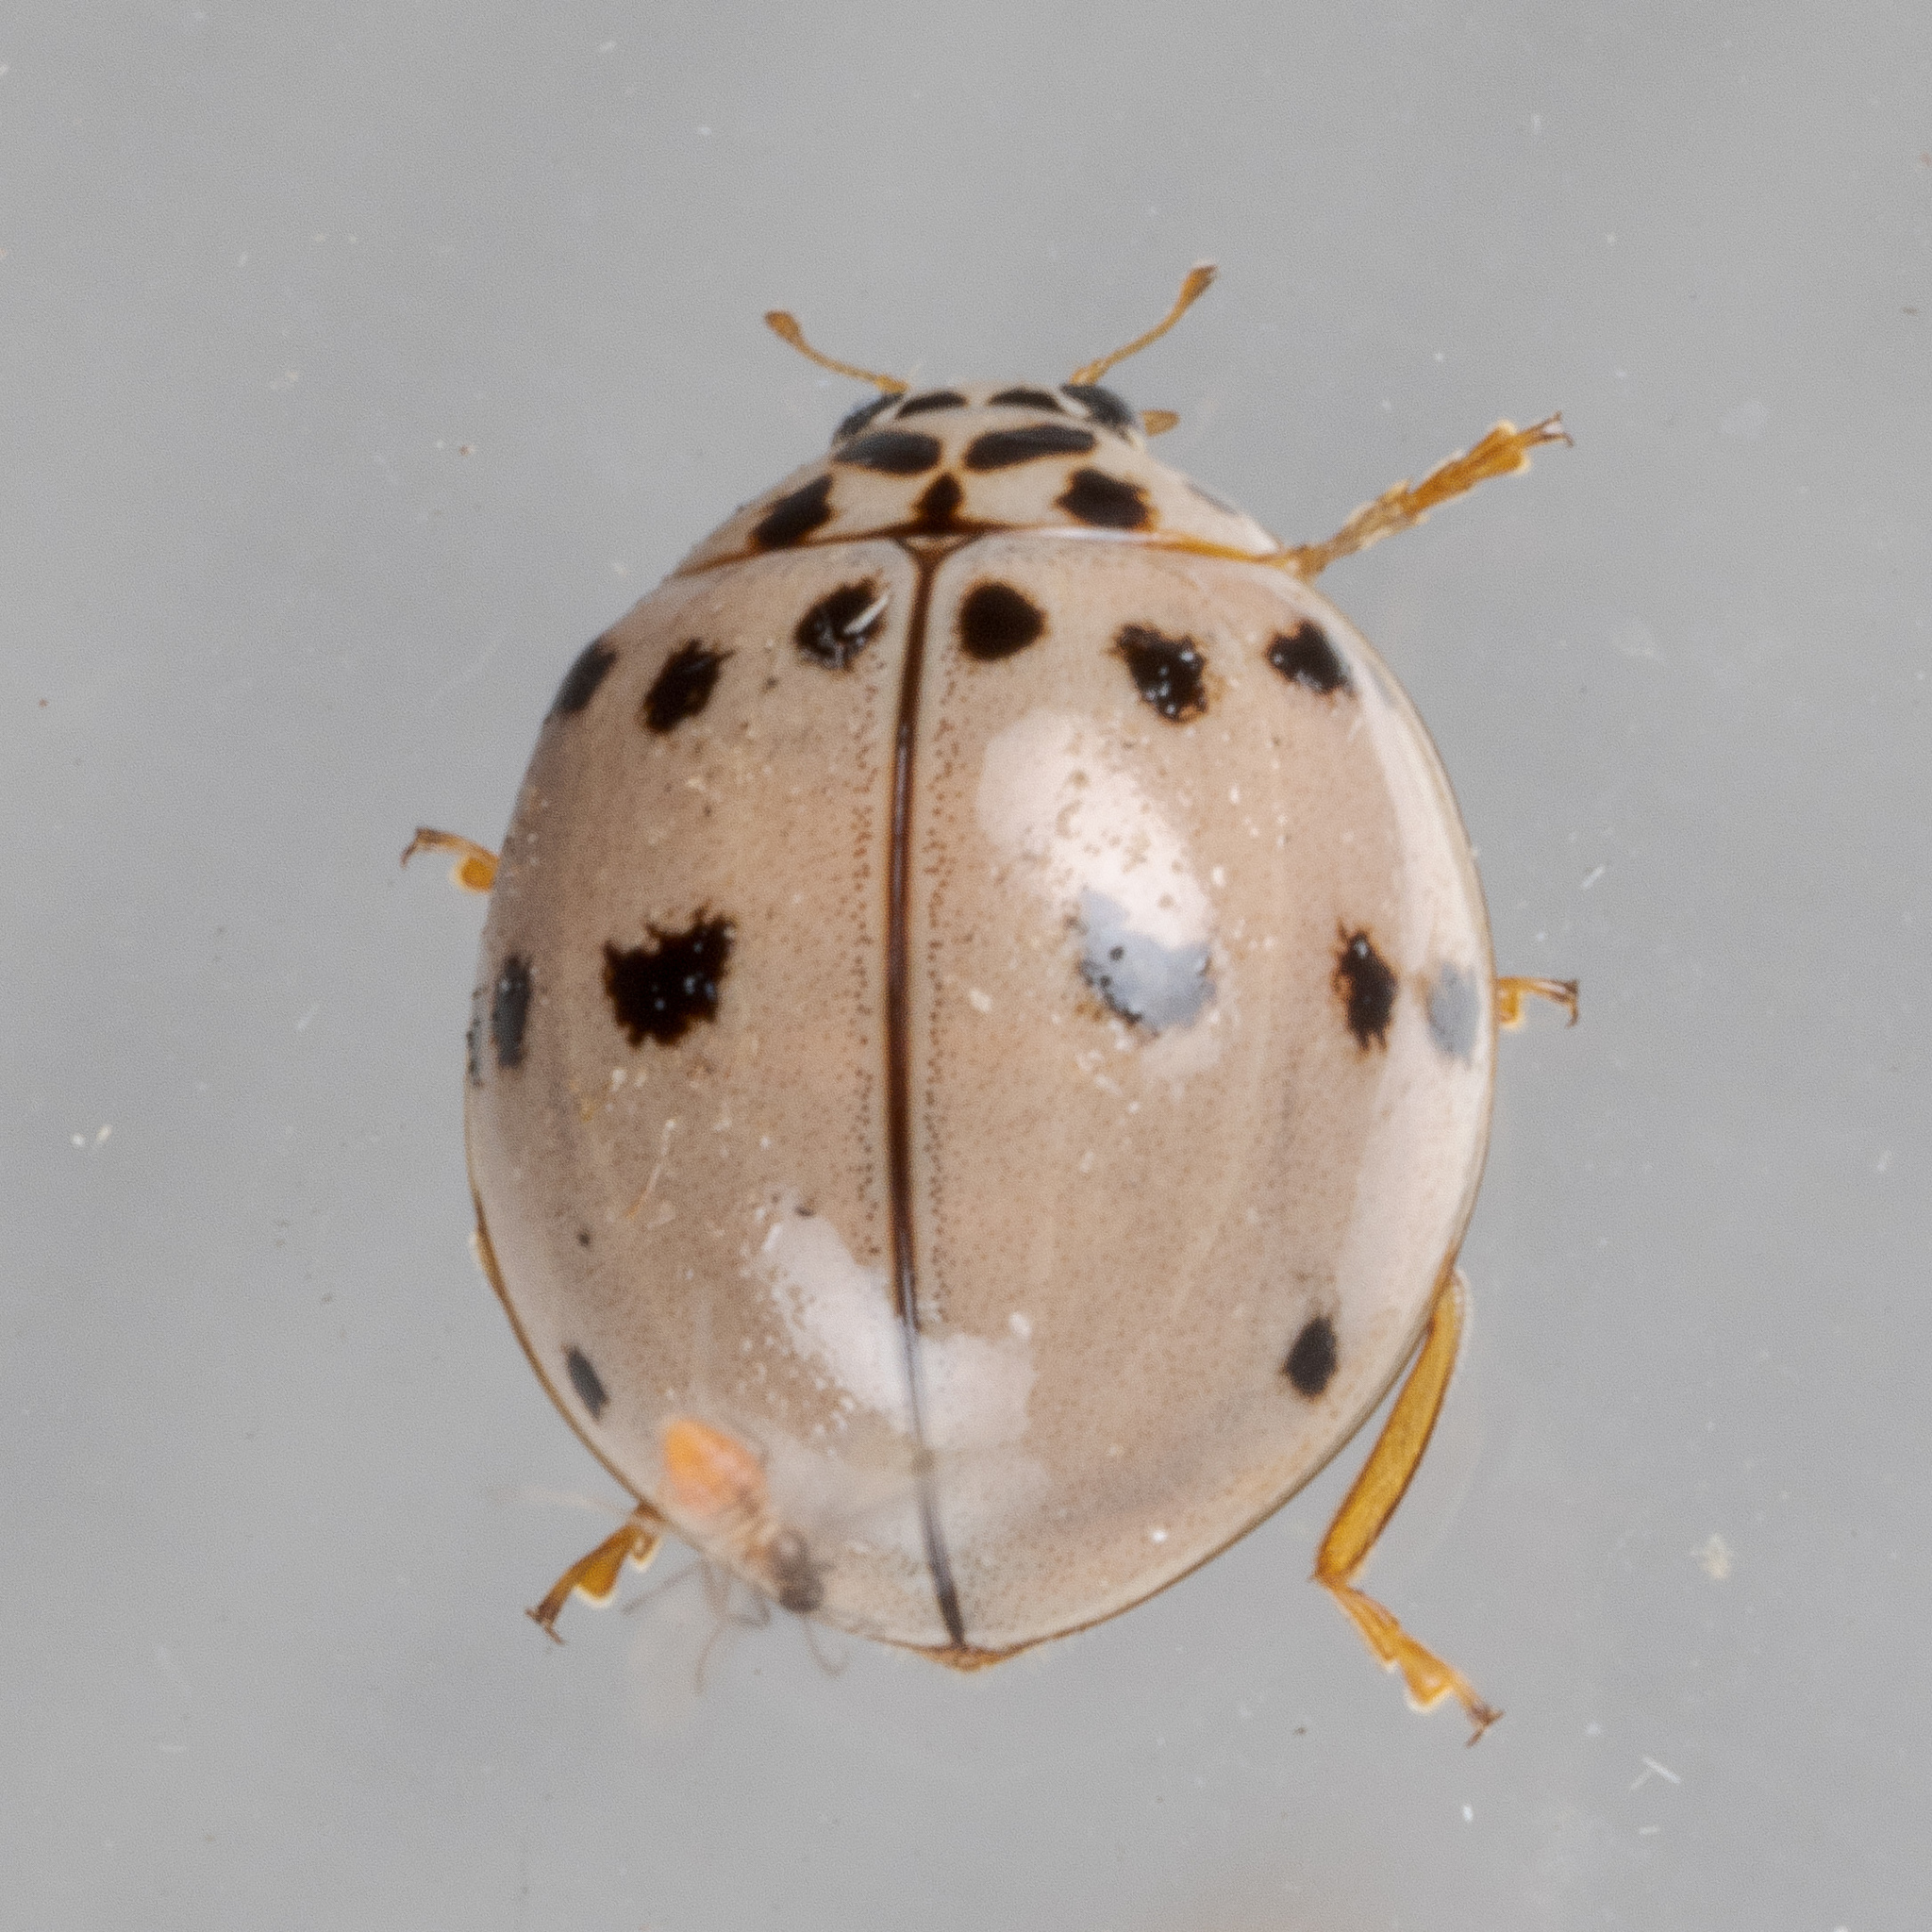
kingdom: Animalia
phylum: Arthropoda
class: Insecta
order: Coleoptera
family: Coccinellidae
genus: Olla
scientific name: Olla v-nigrum
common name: Ashy gray lady beetle
